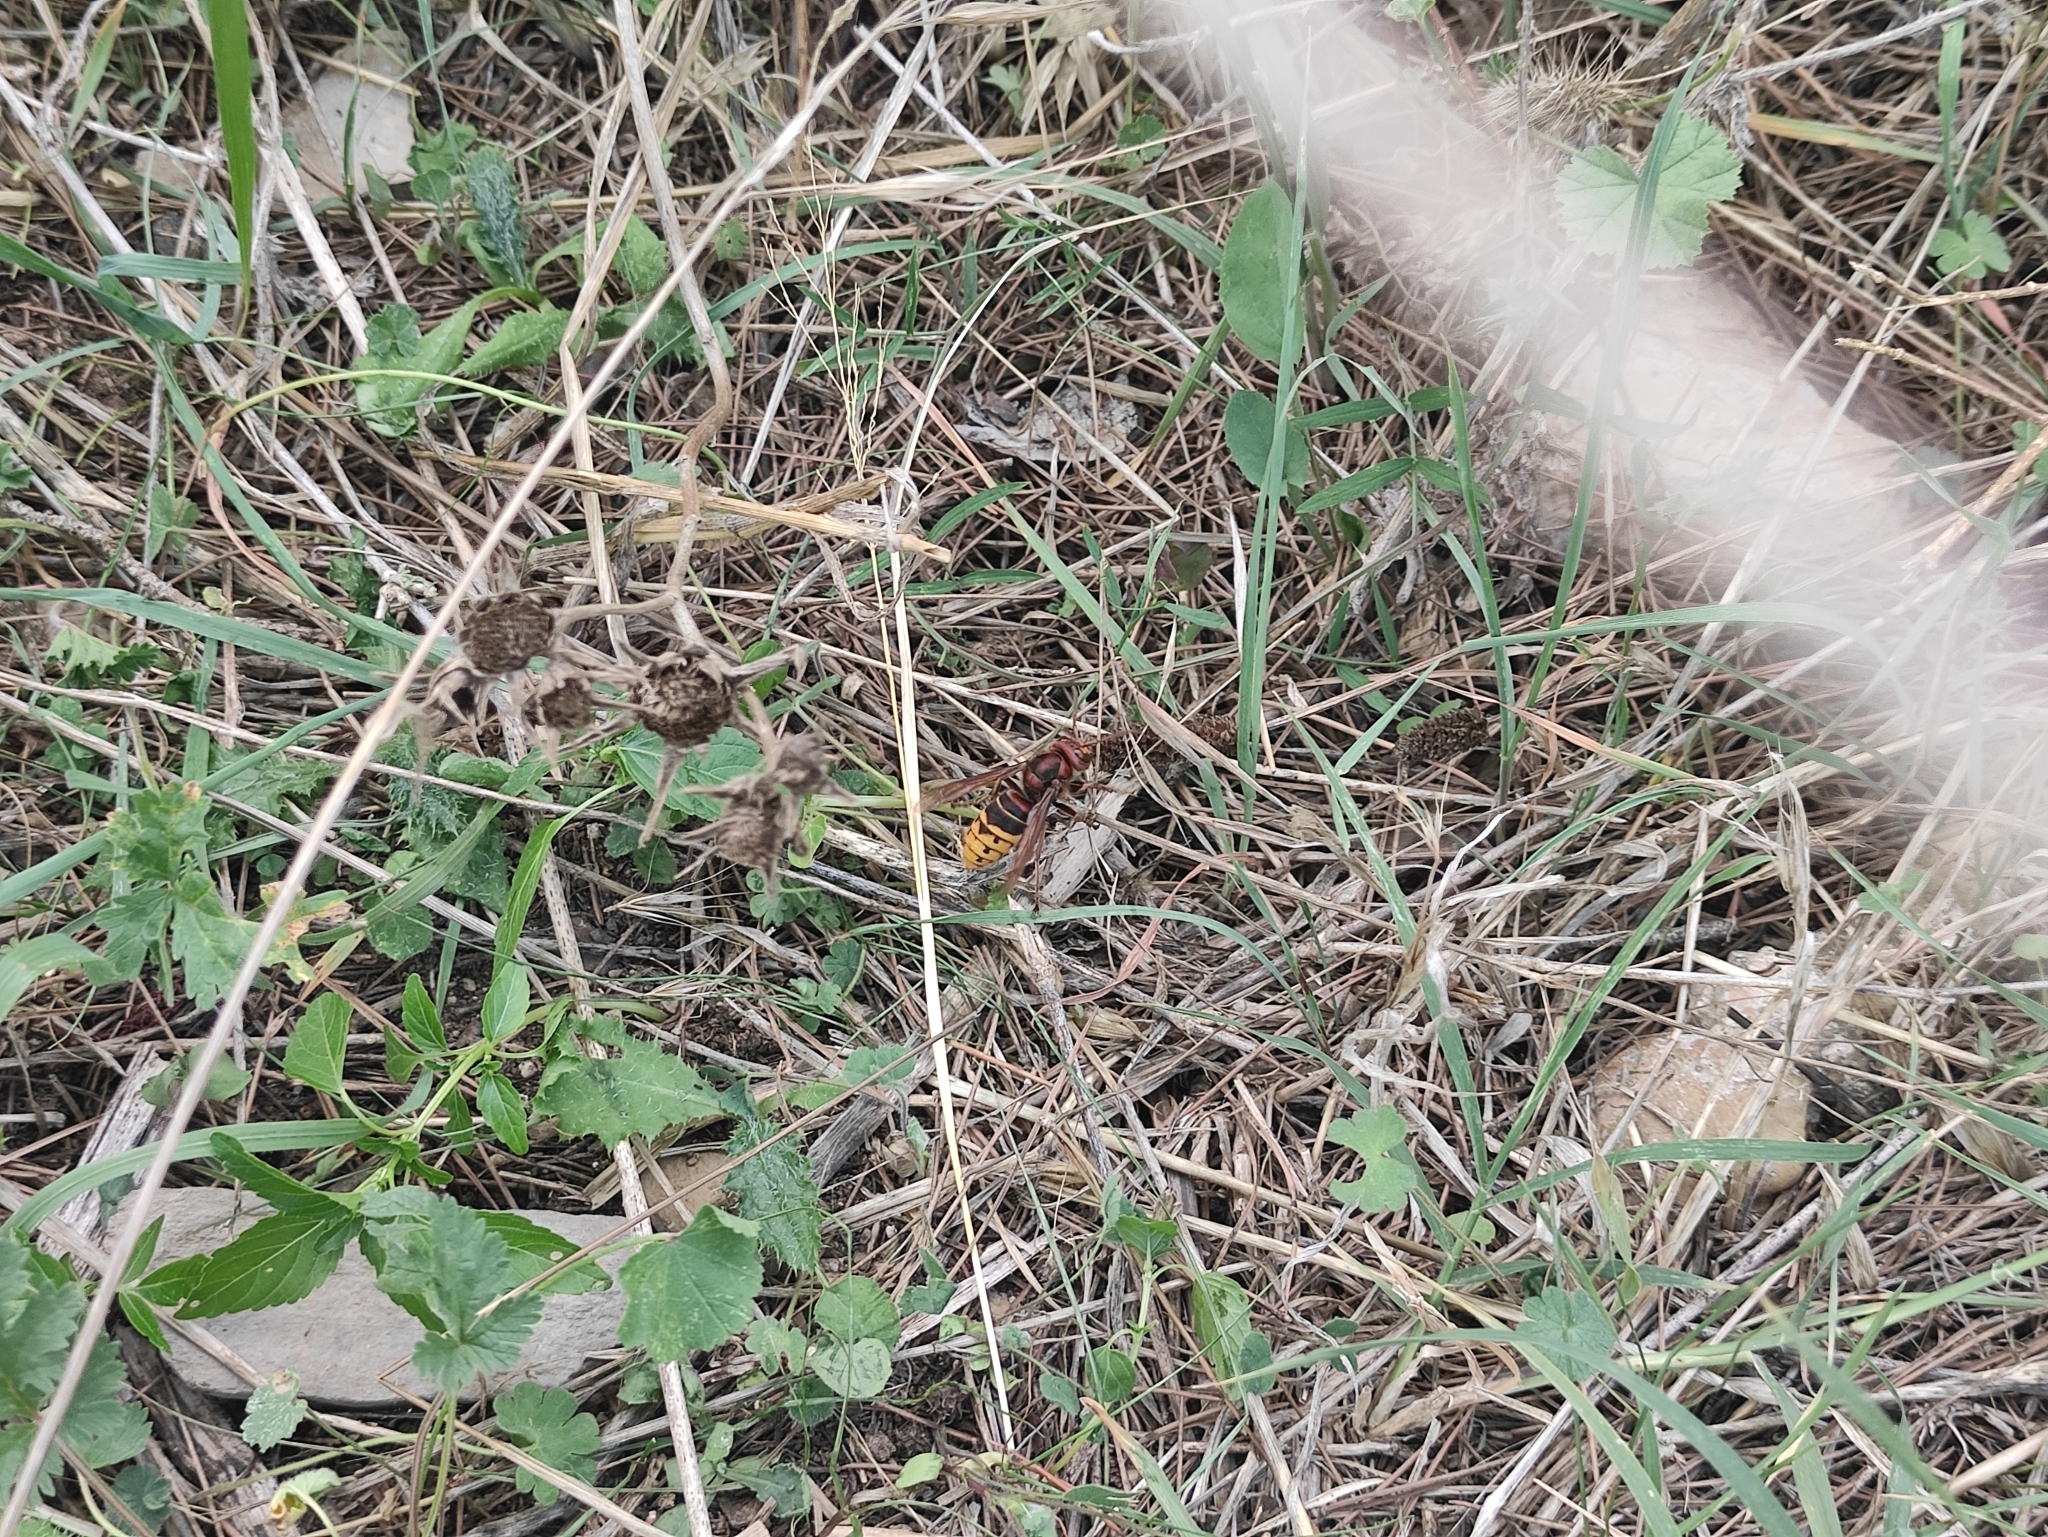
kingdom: Animalia
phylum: Arthropoda
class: Insecta
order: Hymenoptera
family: Vespidae
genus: Vespa
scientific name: Vespa crabro
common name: Hornet
